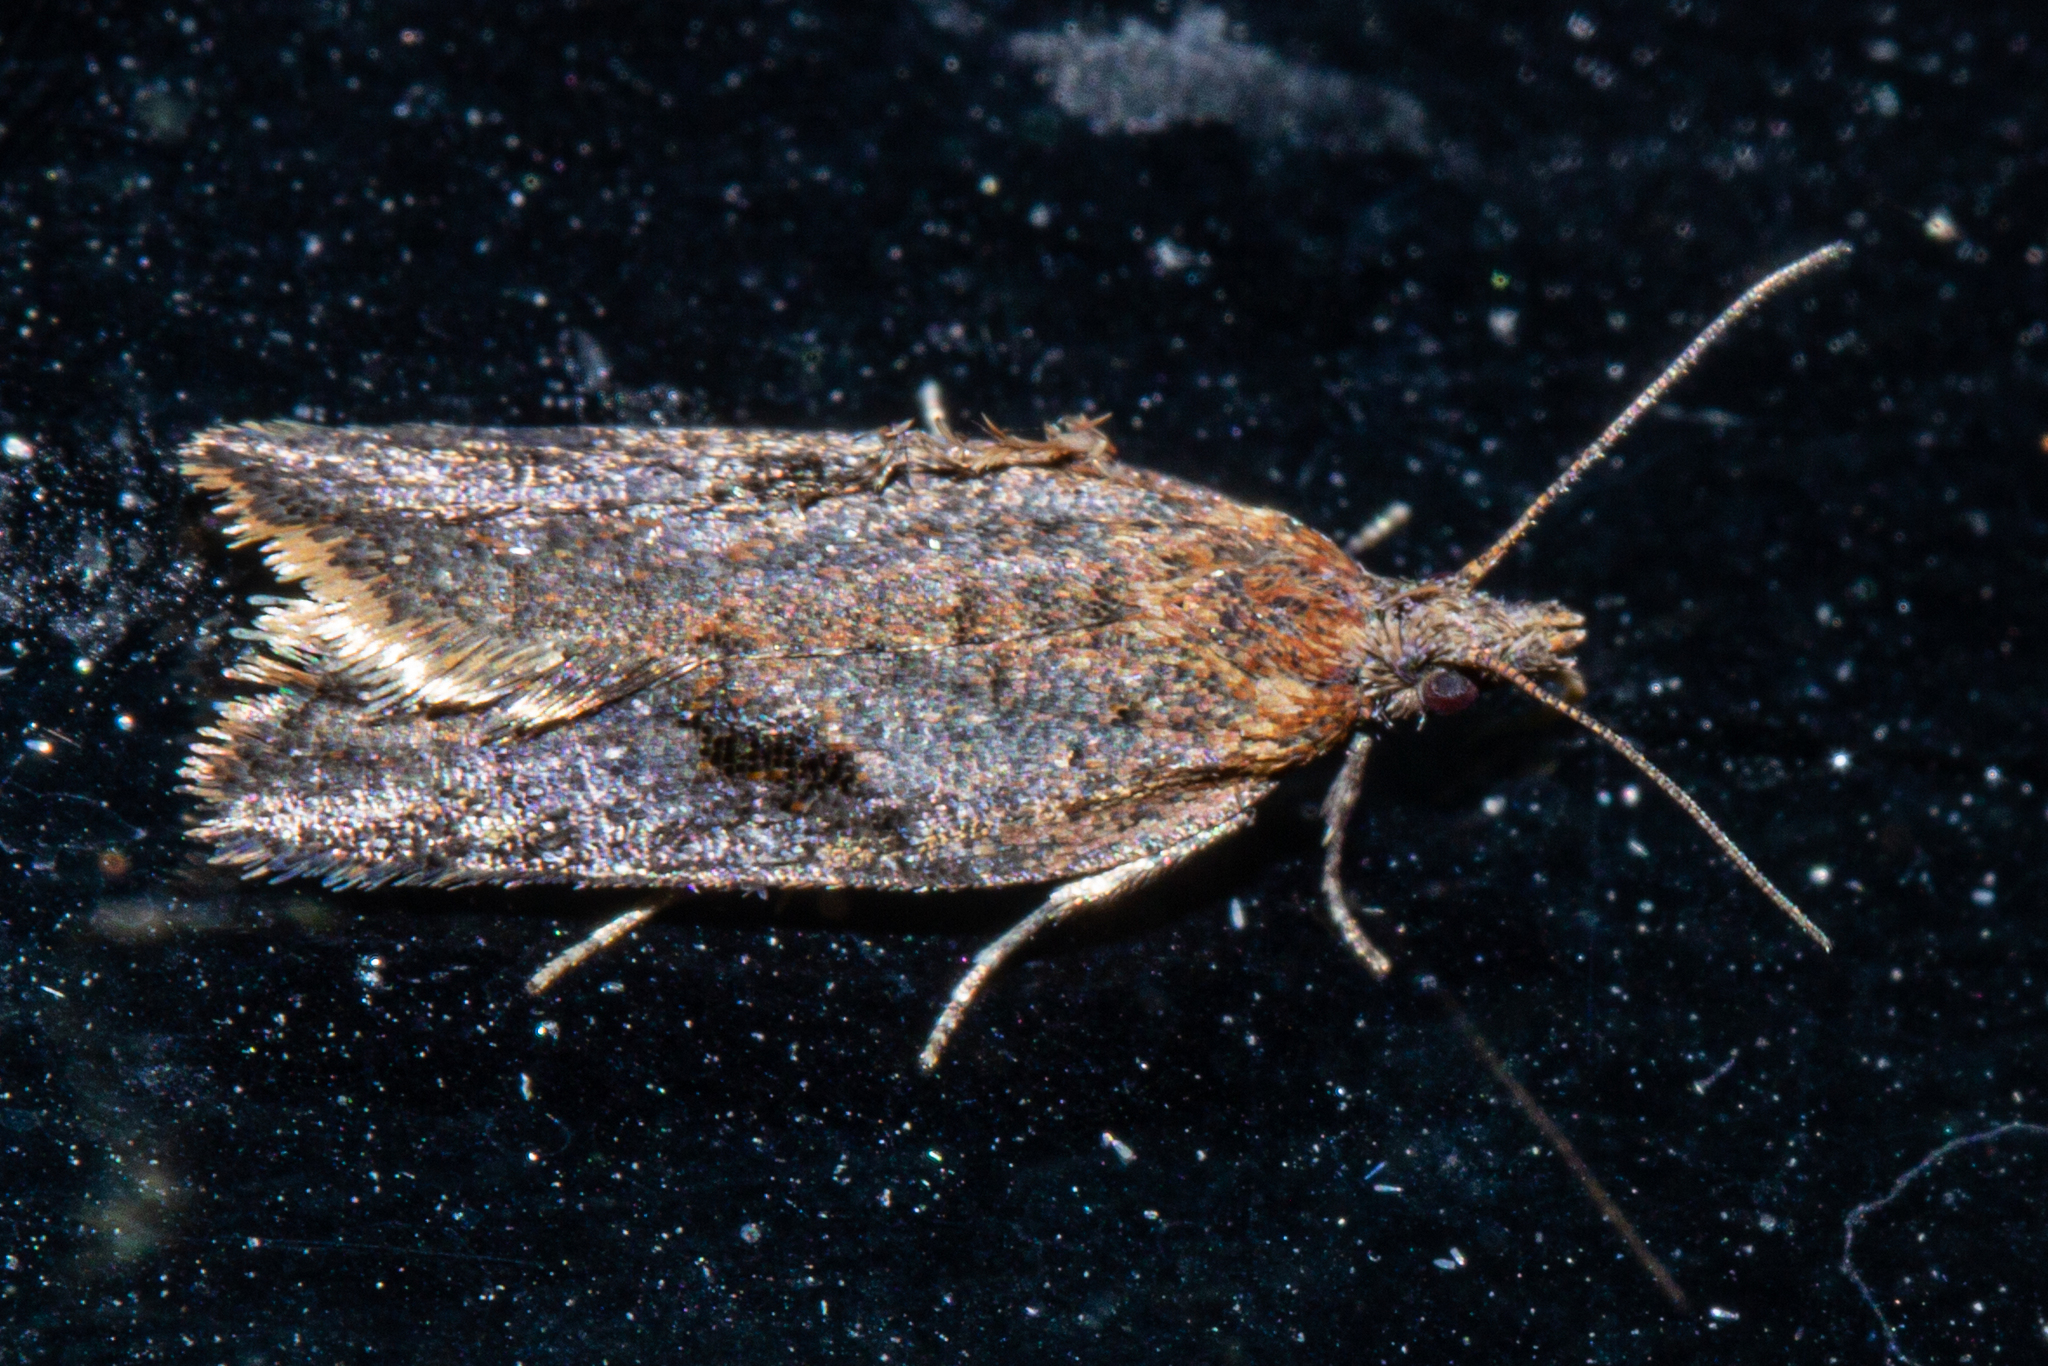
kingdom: Animalia
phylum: Arthropoda
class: Insecta
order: Lepidoptera
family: Tortricidae
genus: Capua
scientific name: Capua semiferana
